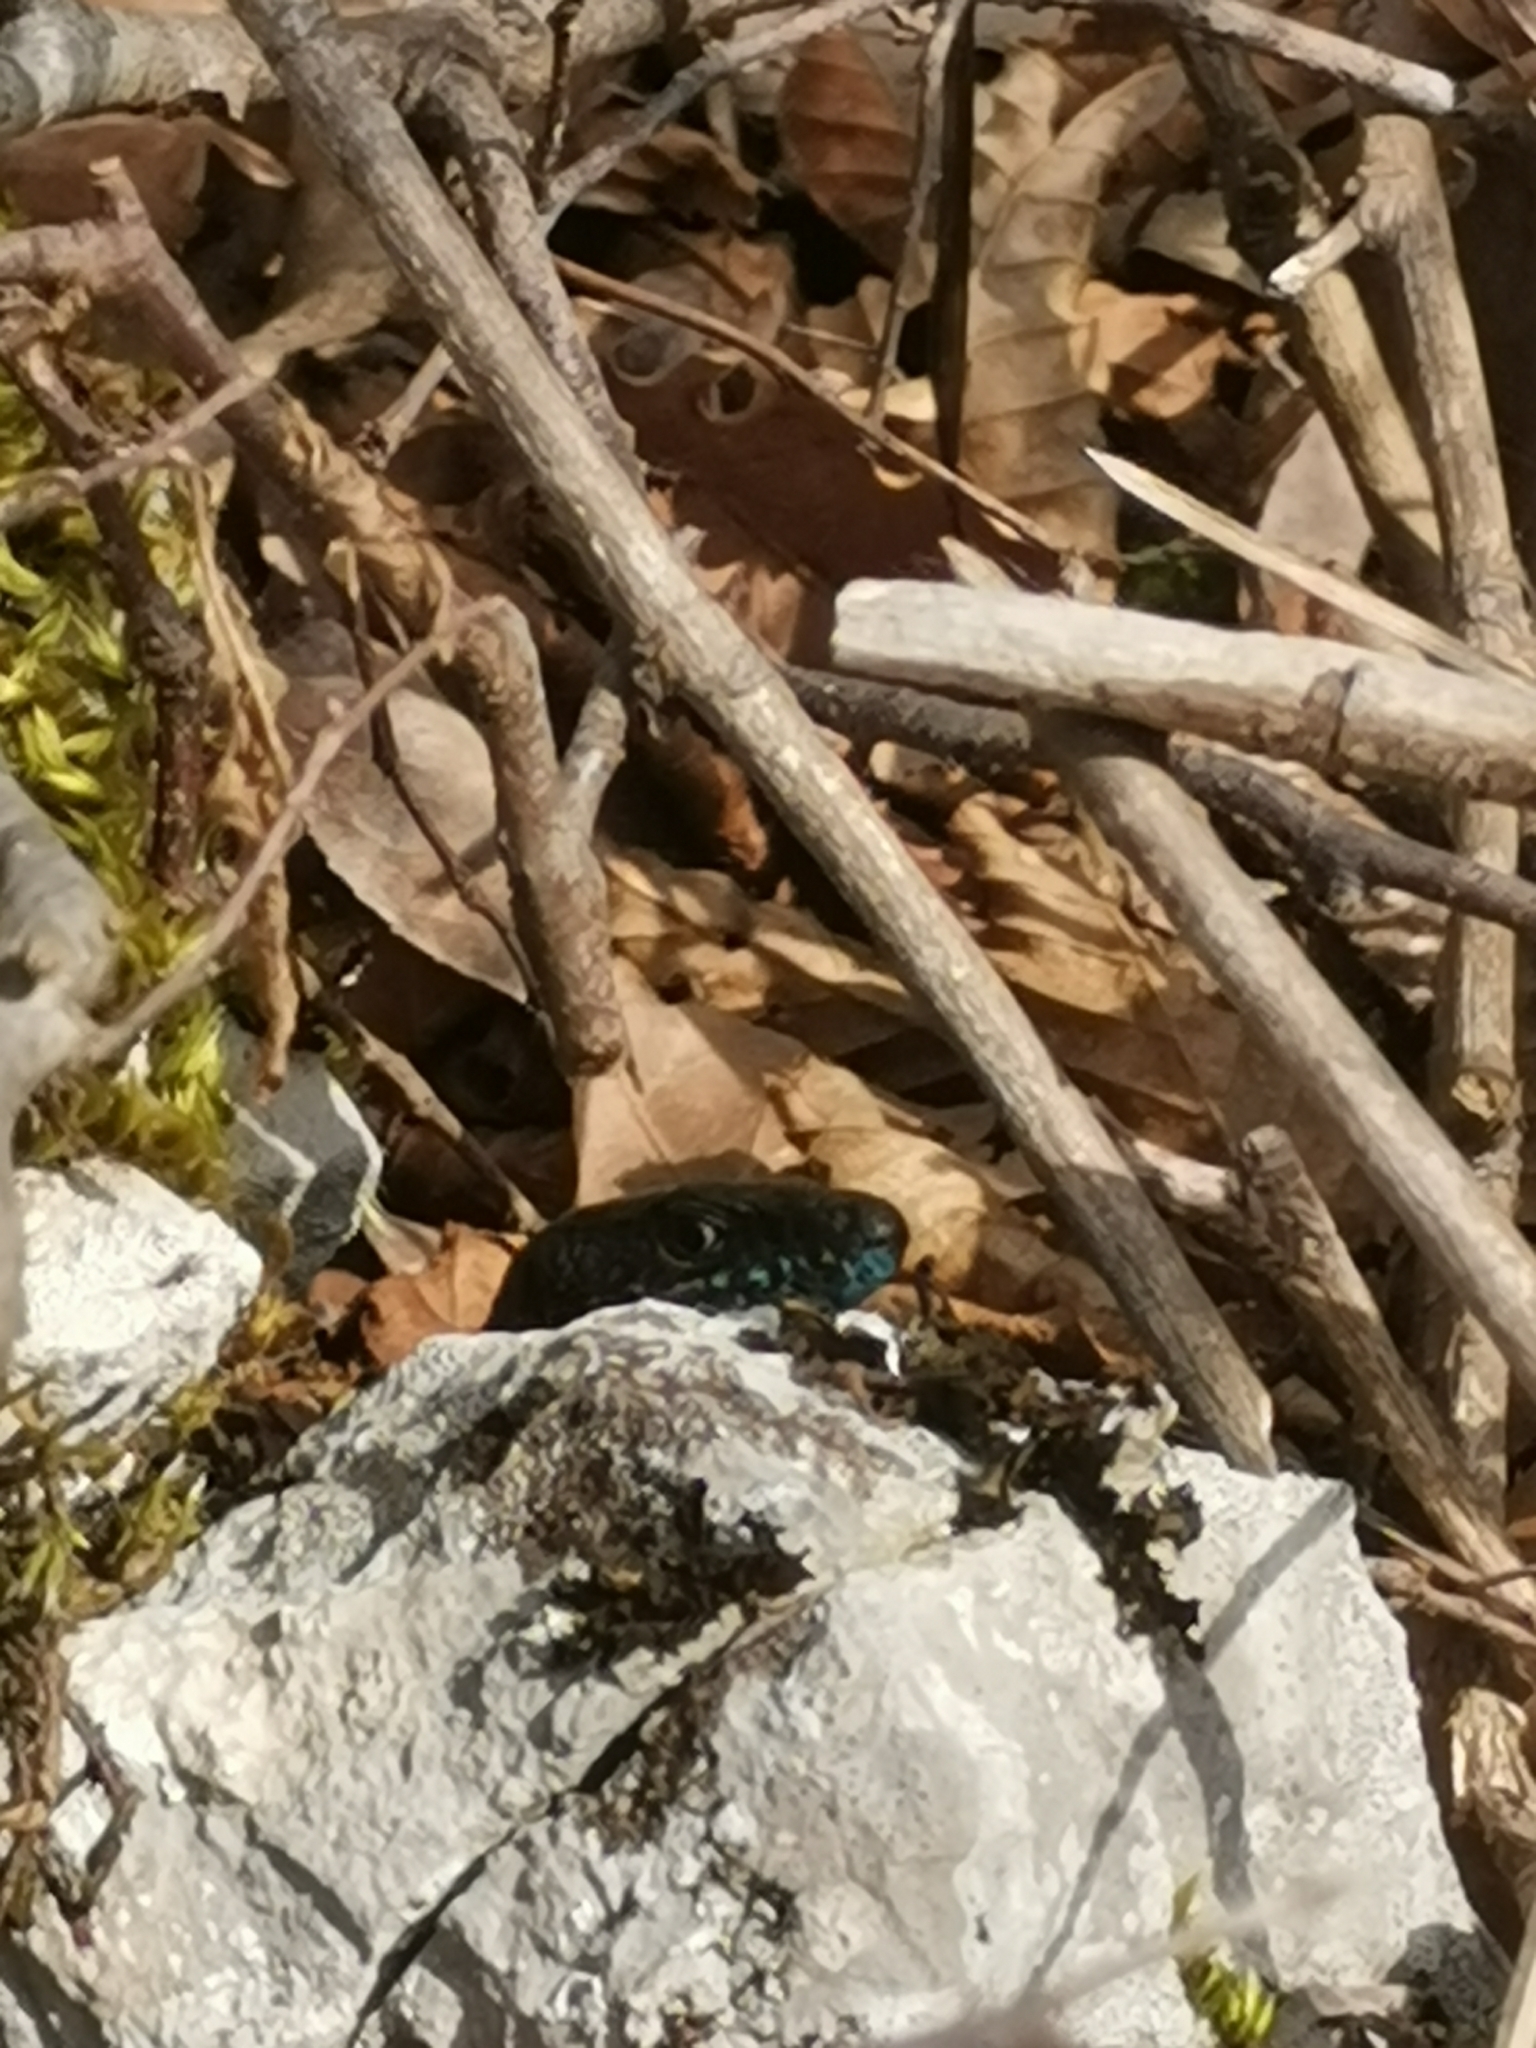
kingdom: Animalia
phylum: Chordata
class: Squamata
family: Lacertidae
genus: Algyroides
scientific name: Algyroides nigropunctatus
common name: Blue-throated keeled lizard
